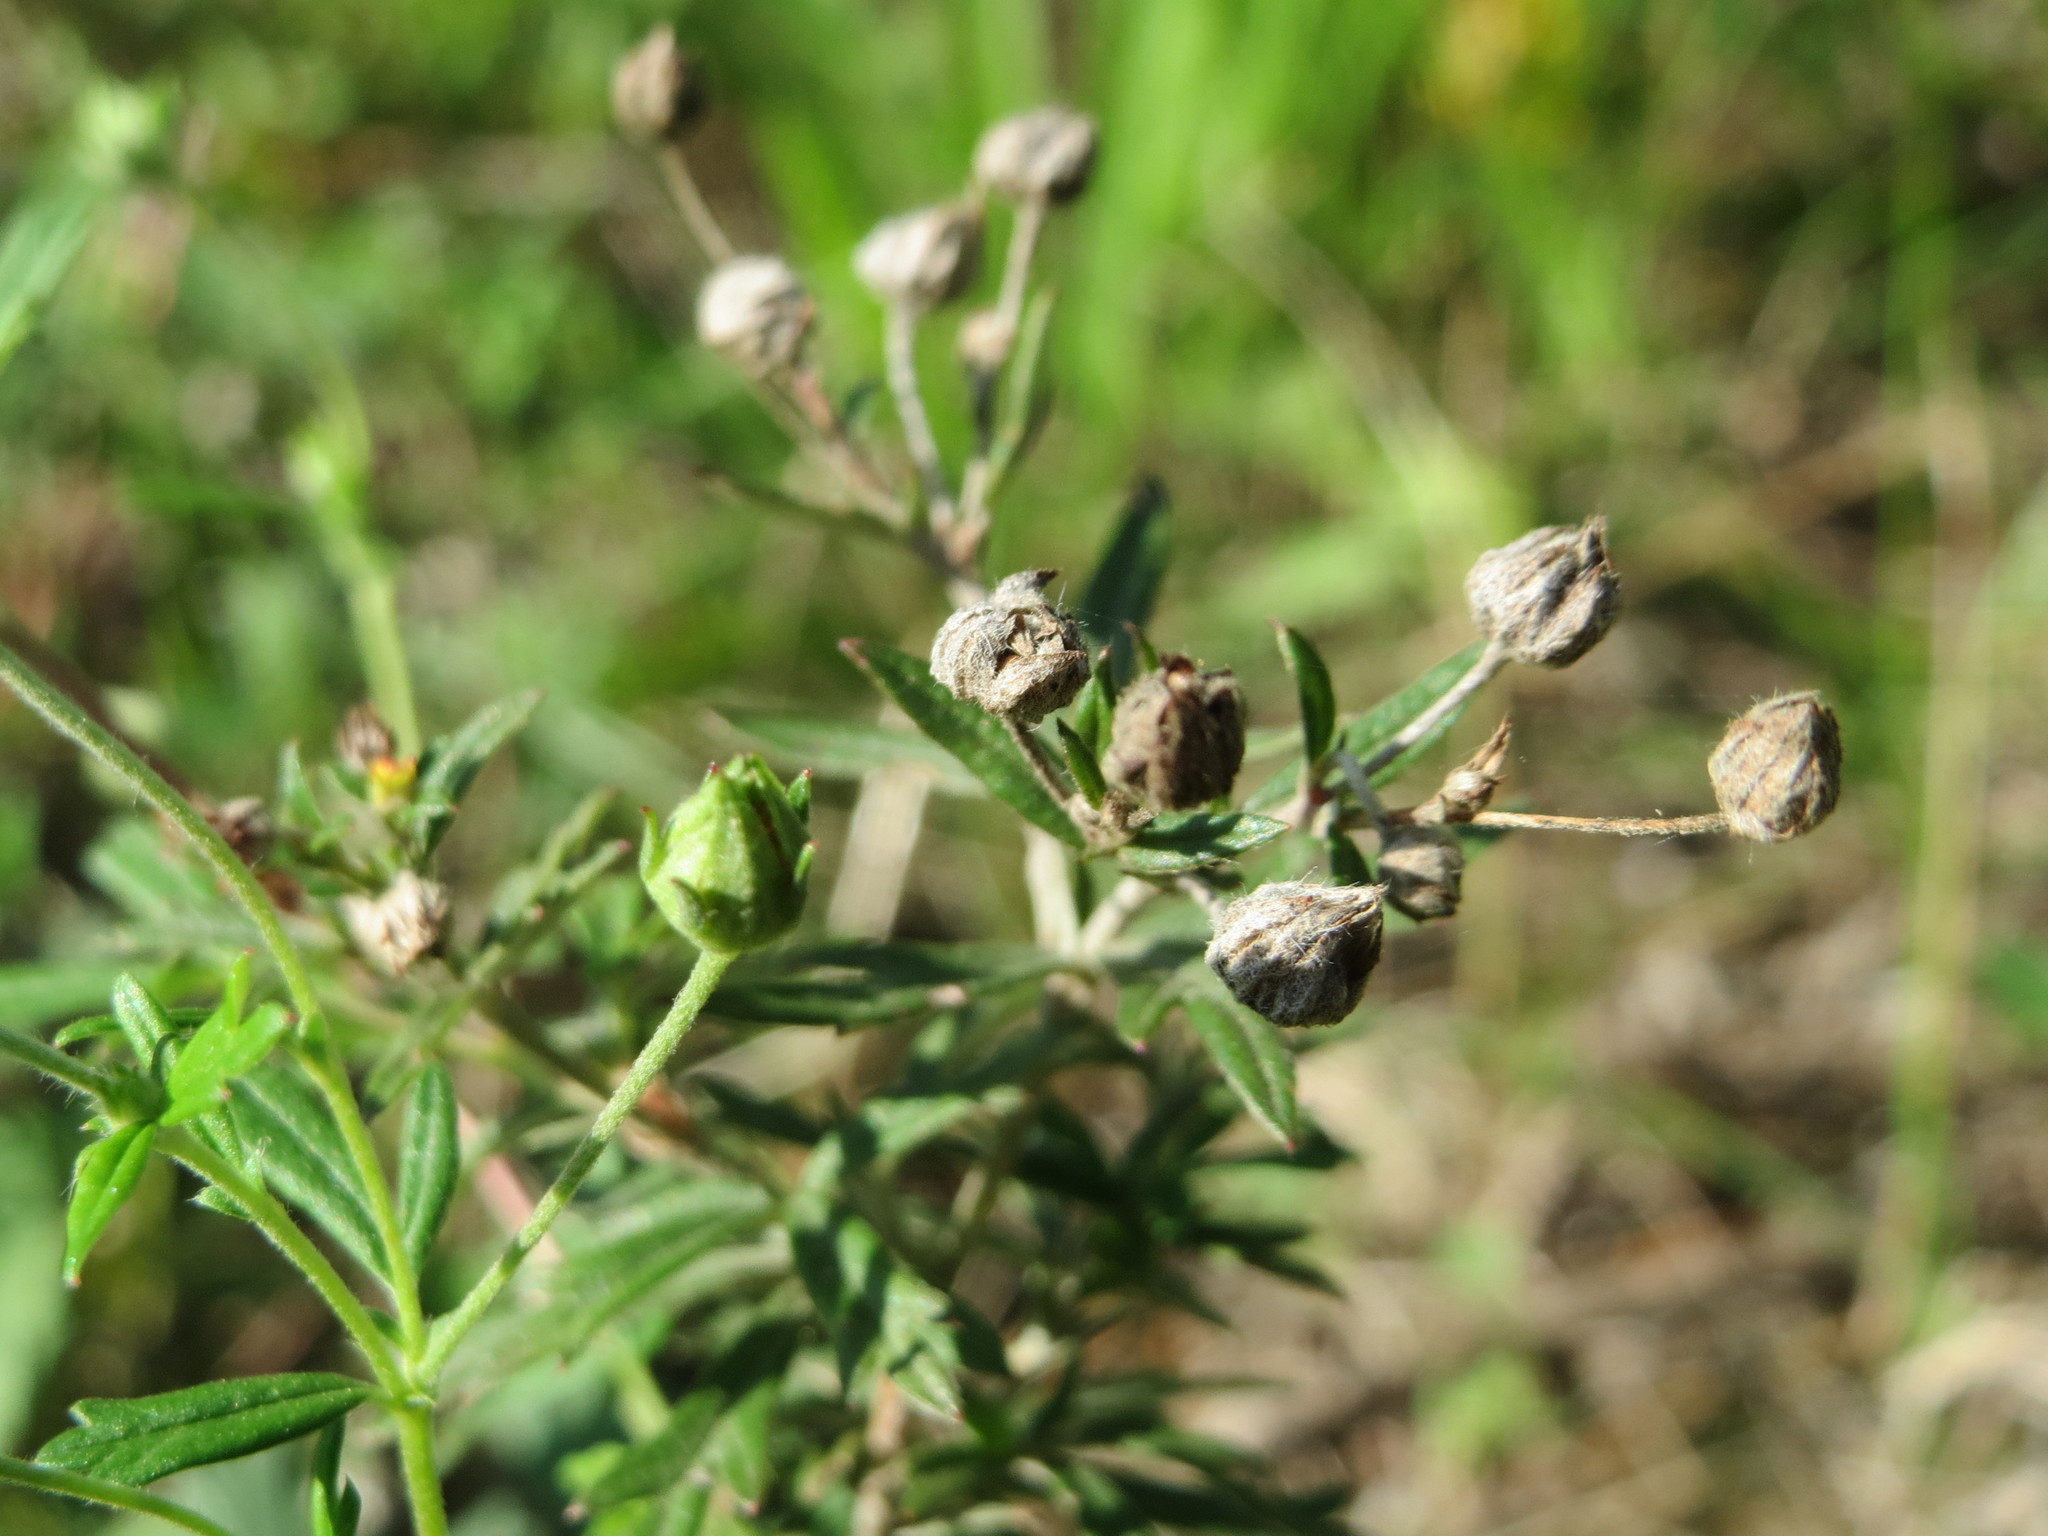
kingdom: Plantae
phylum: Tracheophyta
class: Magnoliopsida
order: Rosales
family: Rosaceae
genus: Potentilla
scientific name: Potentilla argentea
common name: Hoary cinquefoil
